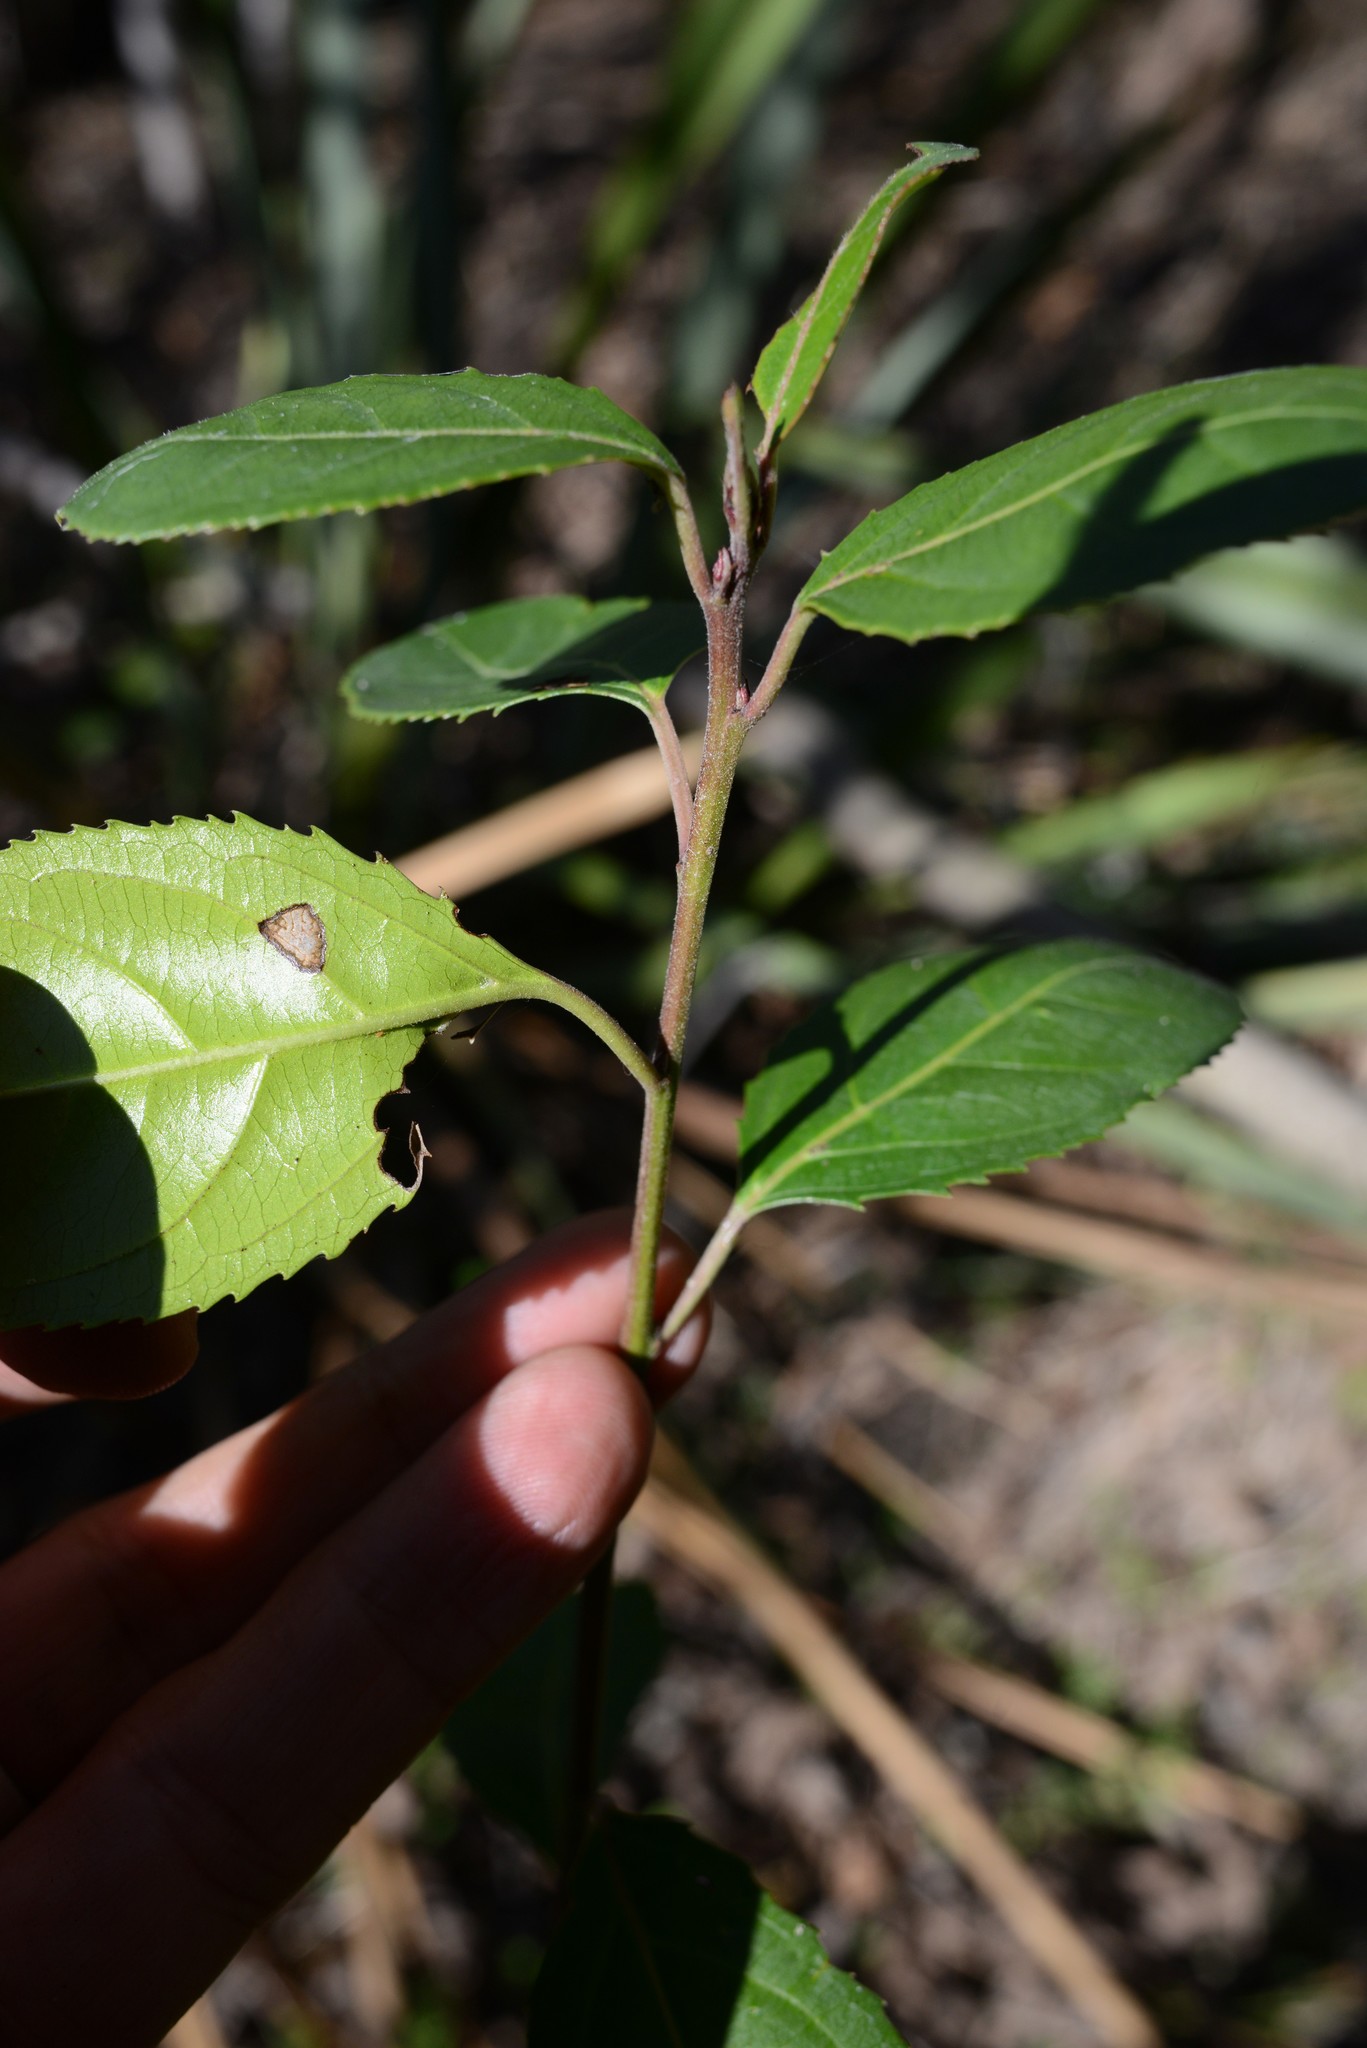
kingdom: Plantae
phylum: Tracheophyta
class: Magnoliopsida
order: Rosales
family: Rhamnaceae
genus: Rhamnus
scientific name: Rhamnus alaternus
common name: Mediterranean buckthorn
